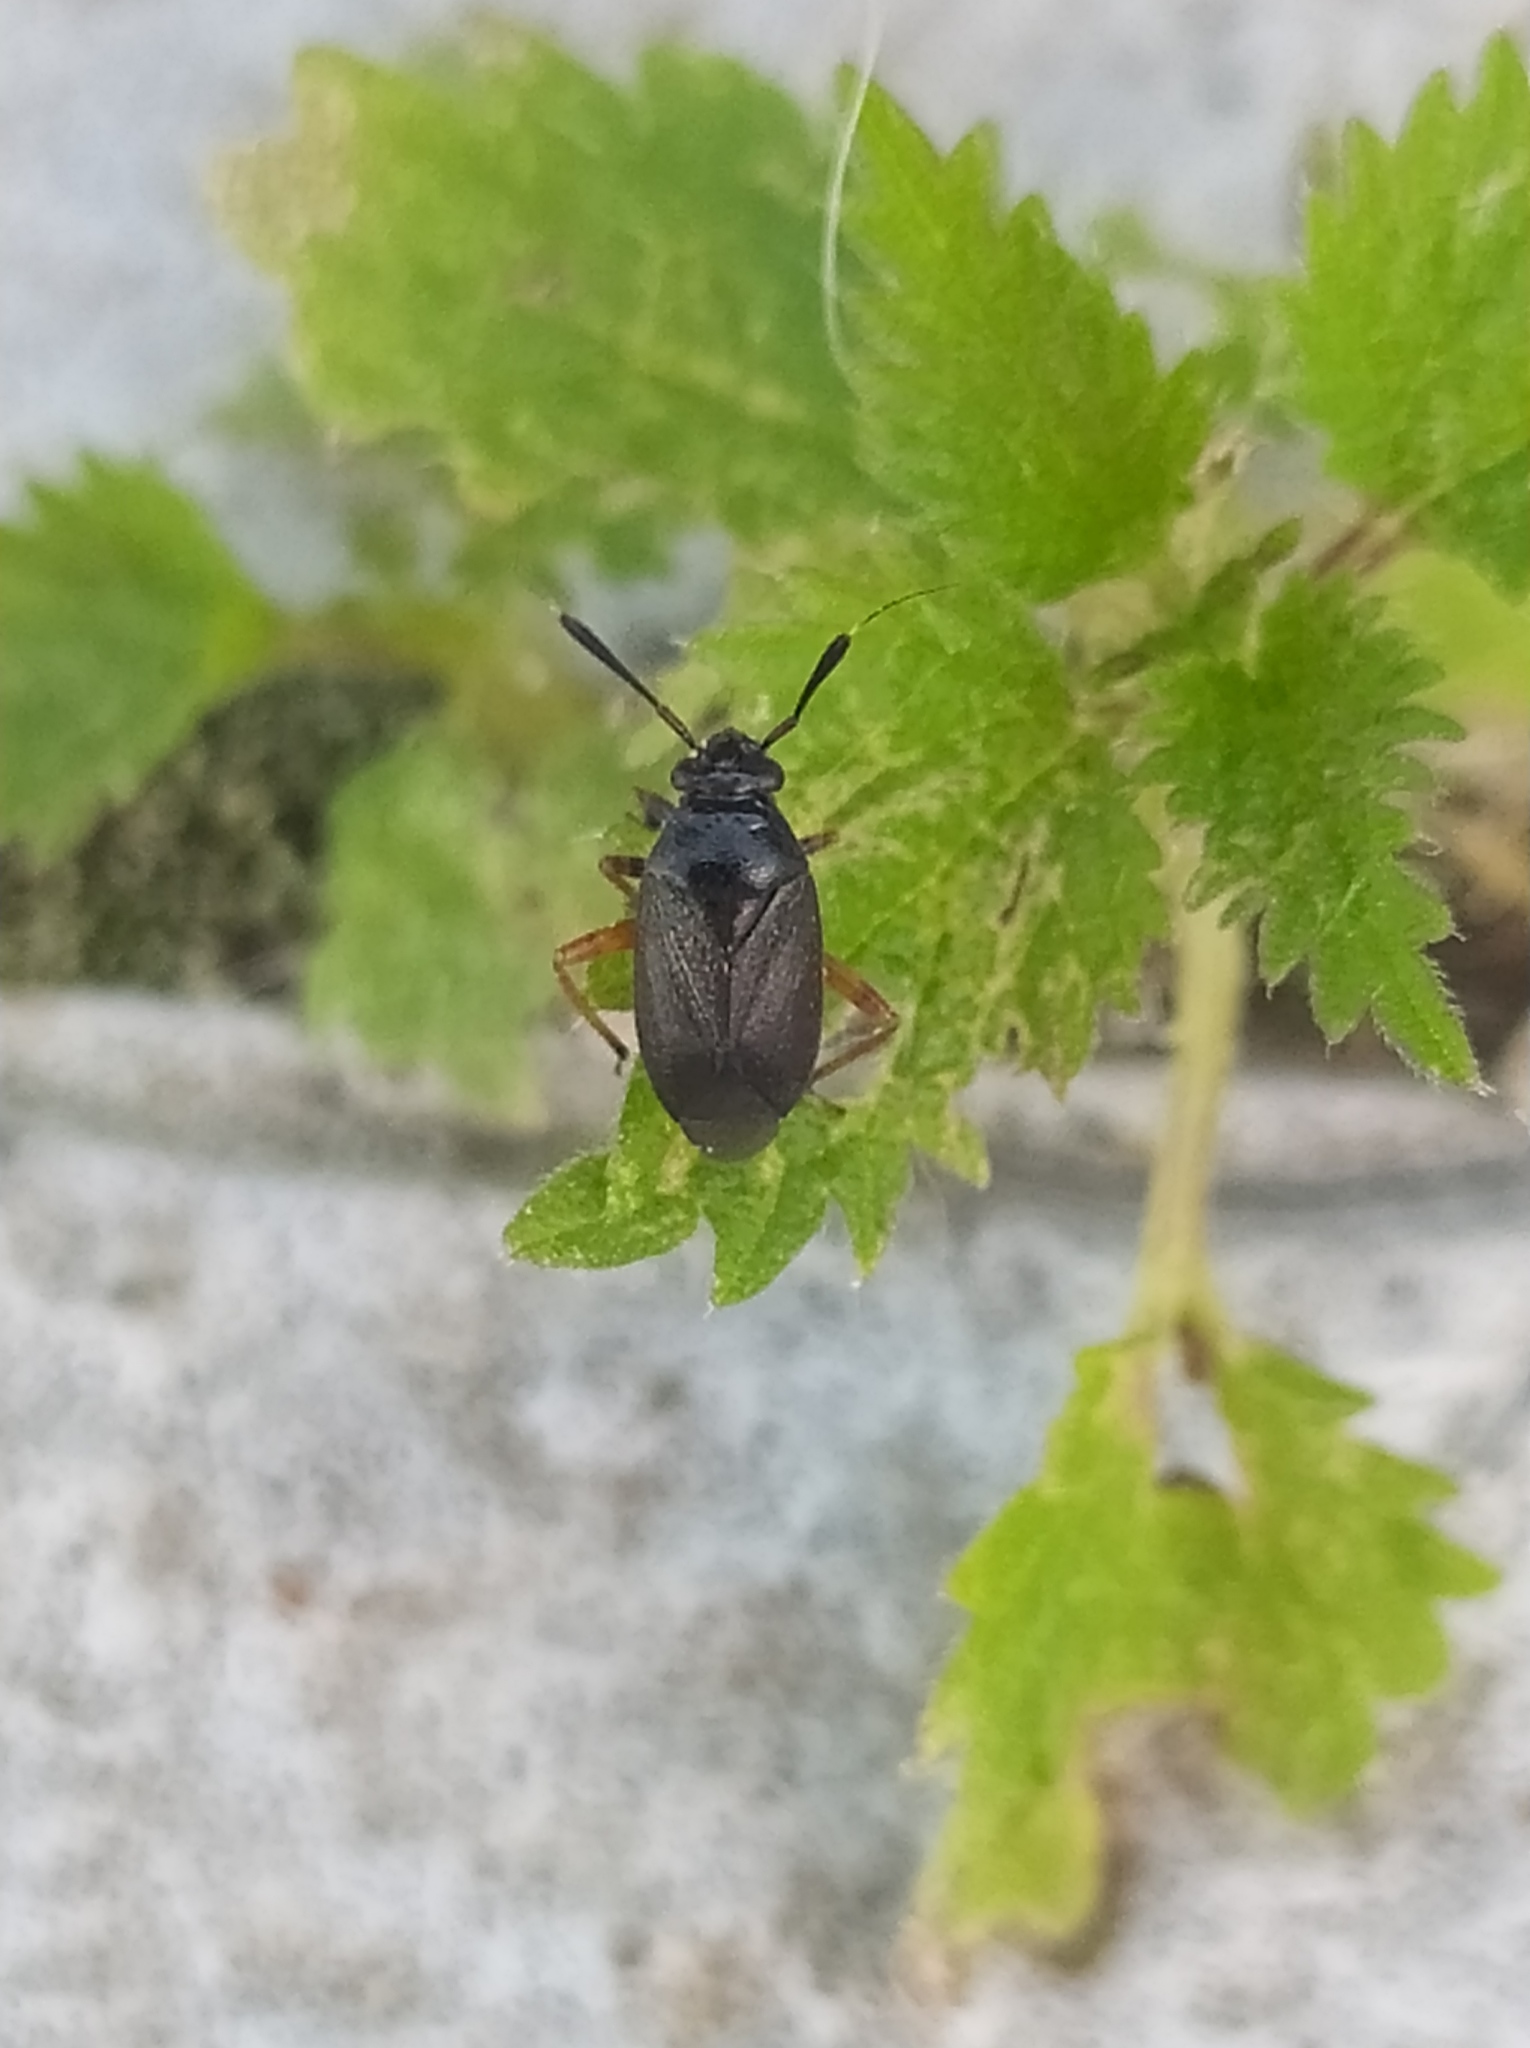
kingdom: Animalia
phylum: Arthropoda
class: Insecta
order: Hemiptera
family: Miridae
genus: Capsus
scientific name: Capsus ater
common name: Black plant bug
